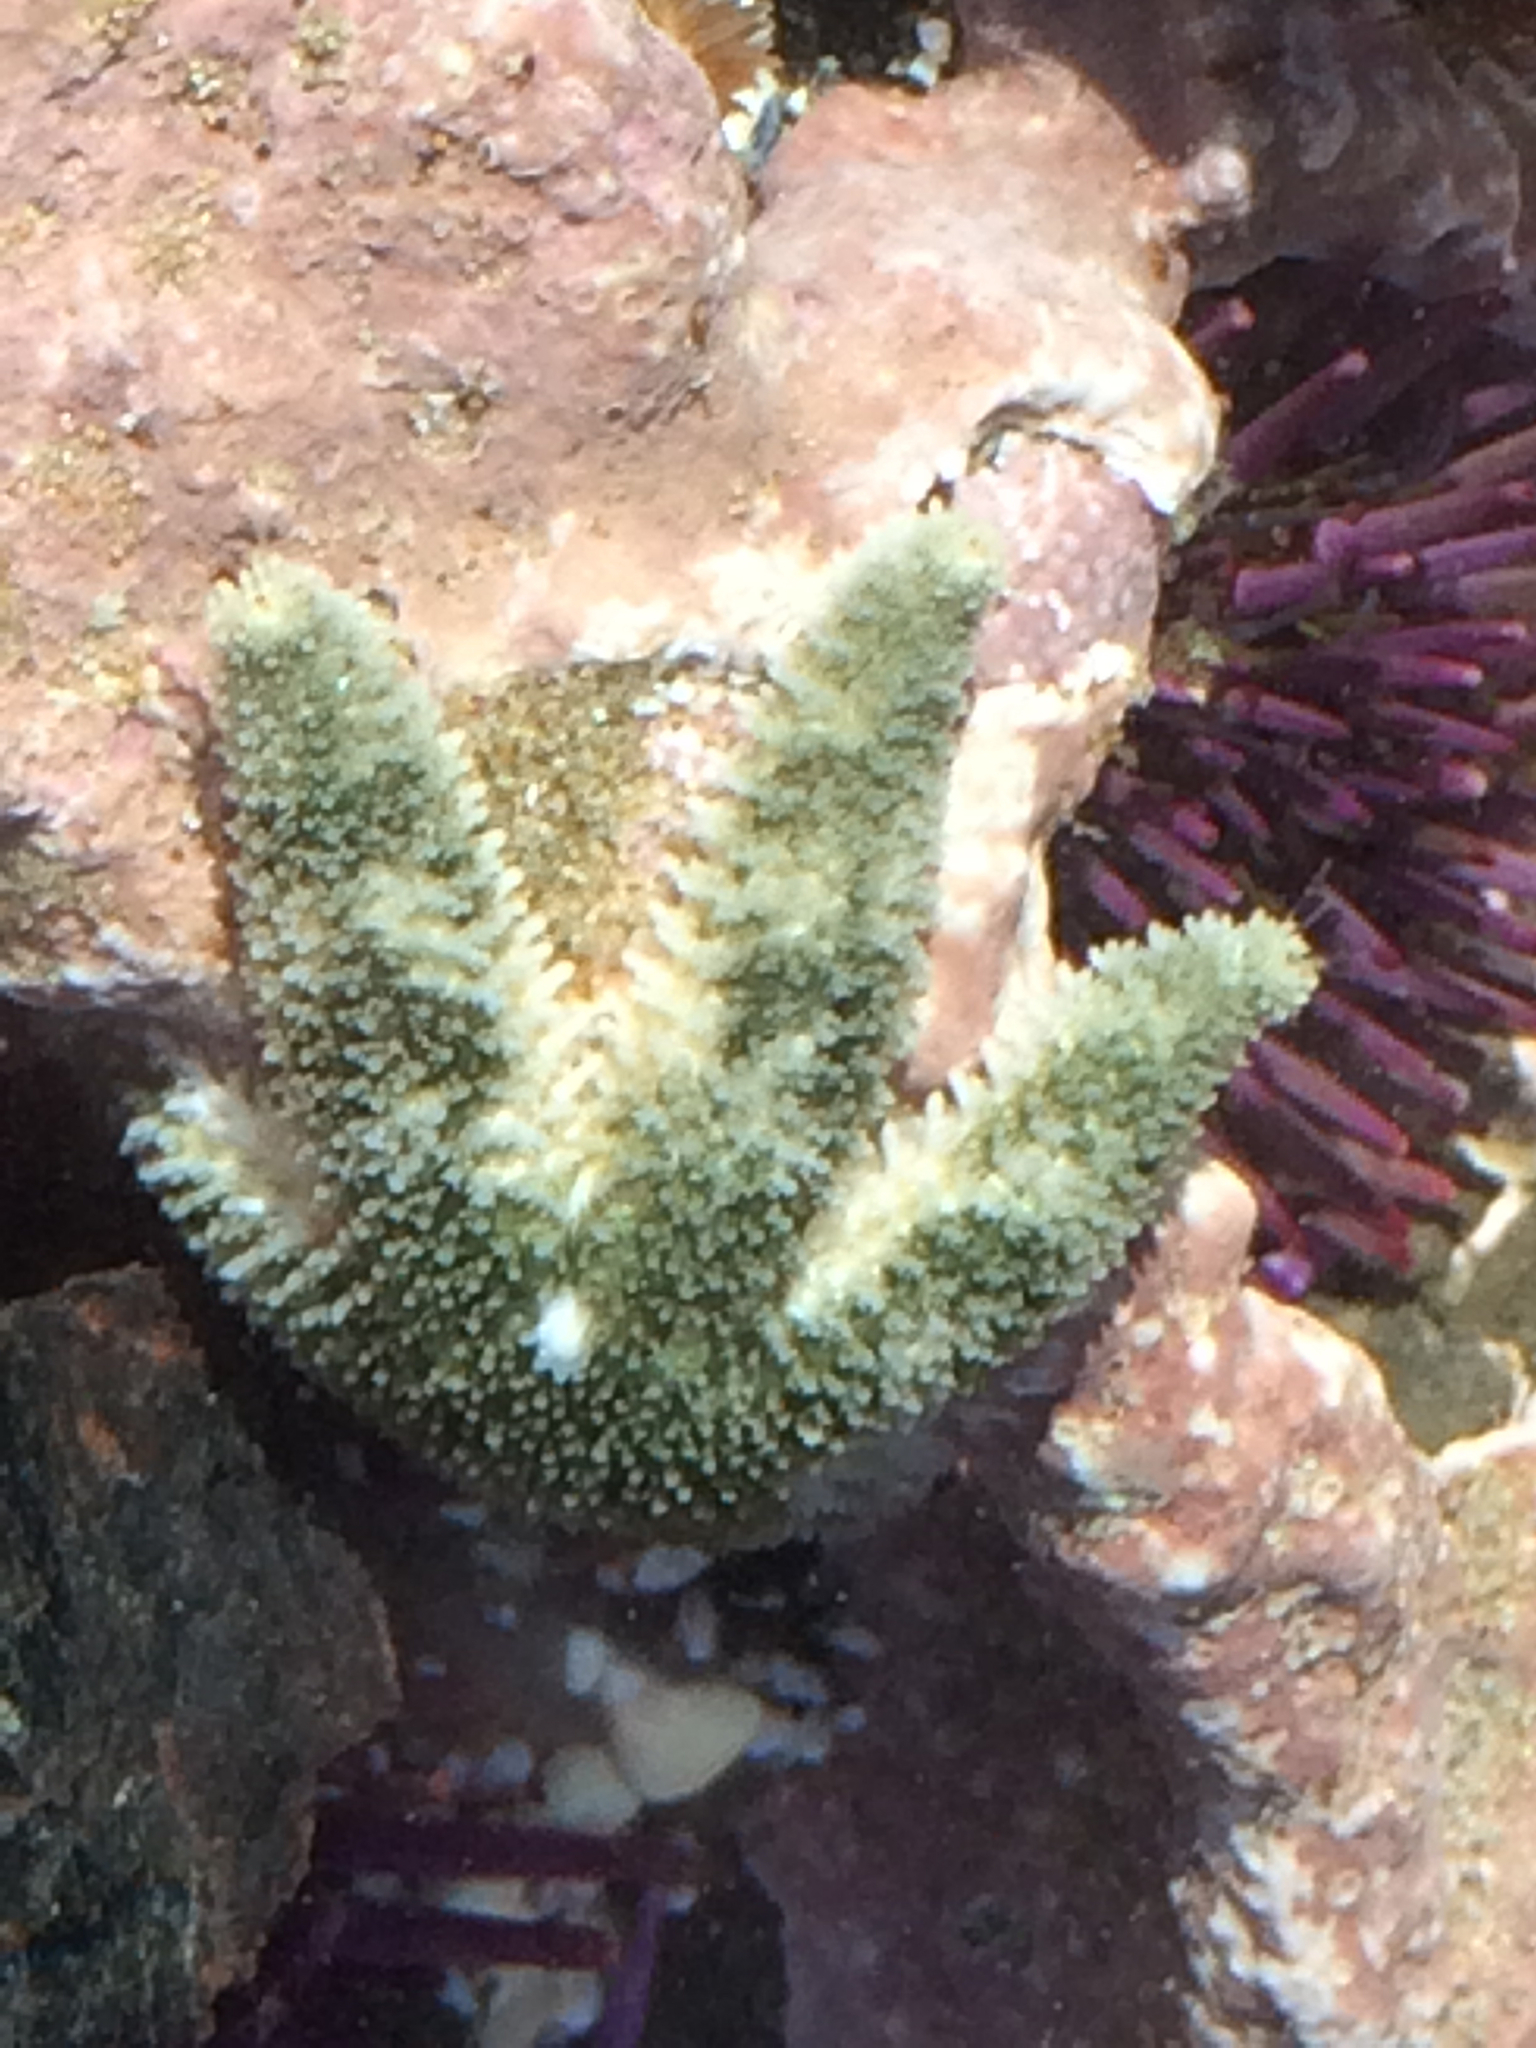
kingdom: Animalia
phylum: Echinodermata
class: Asteroidea
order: Forcipulatida
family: Asteriidae
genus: Leptasterias
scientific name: Leptasterias hexactis
